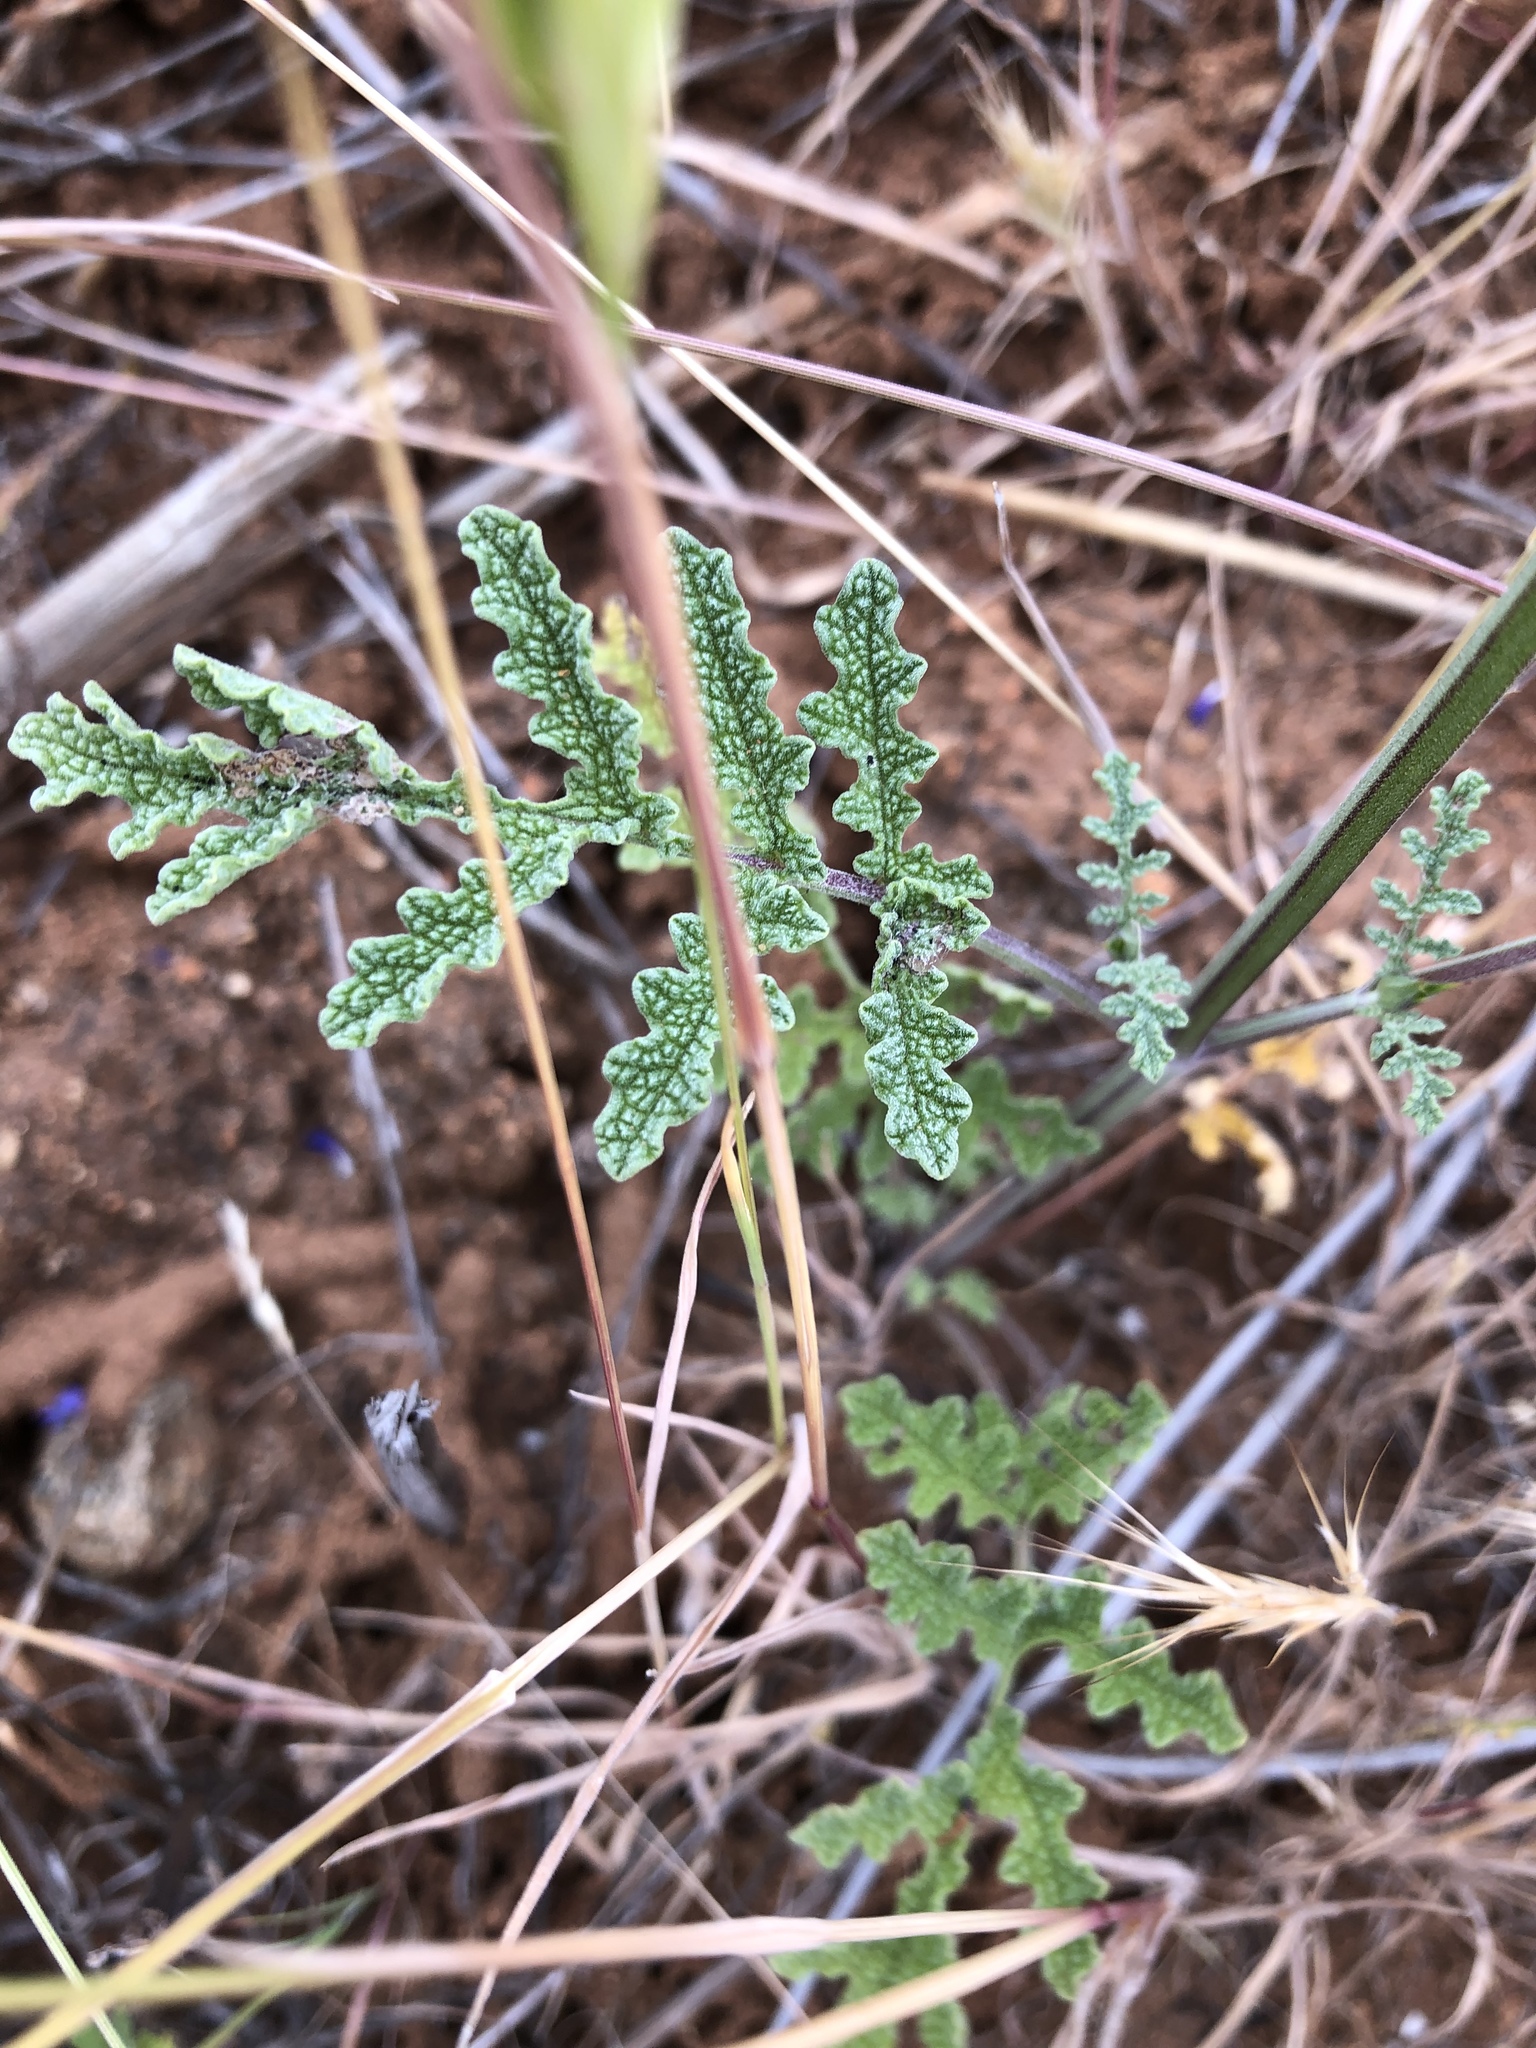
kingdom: Plantae
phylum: Tracheophyta
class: Magnoliopsida
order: Lamiales
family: Lamiaceae
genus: Salvia
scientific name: Salvia columbariae
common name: Chia
